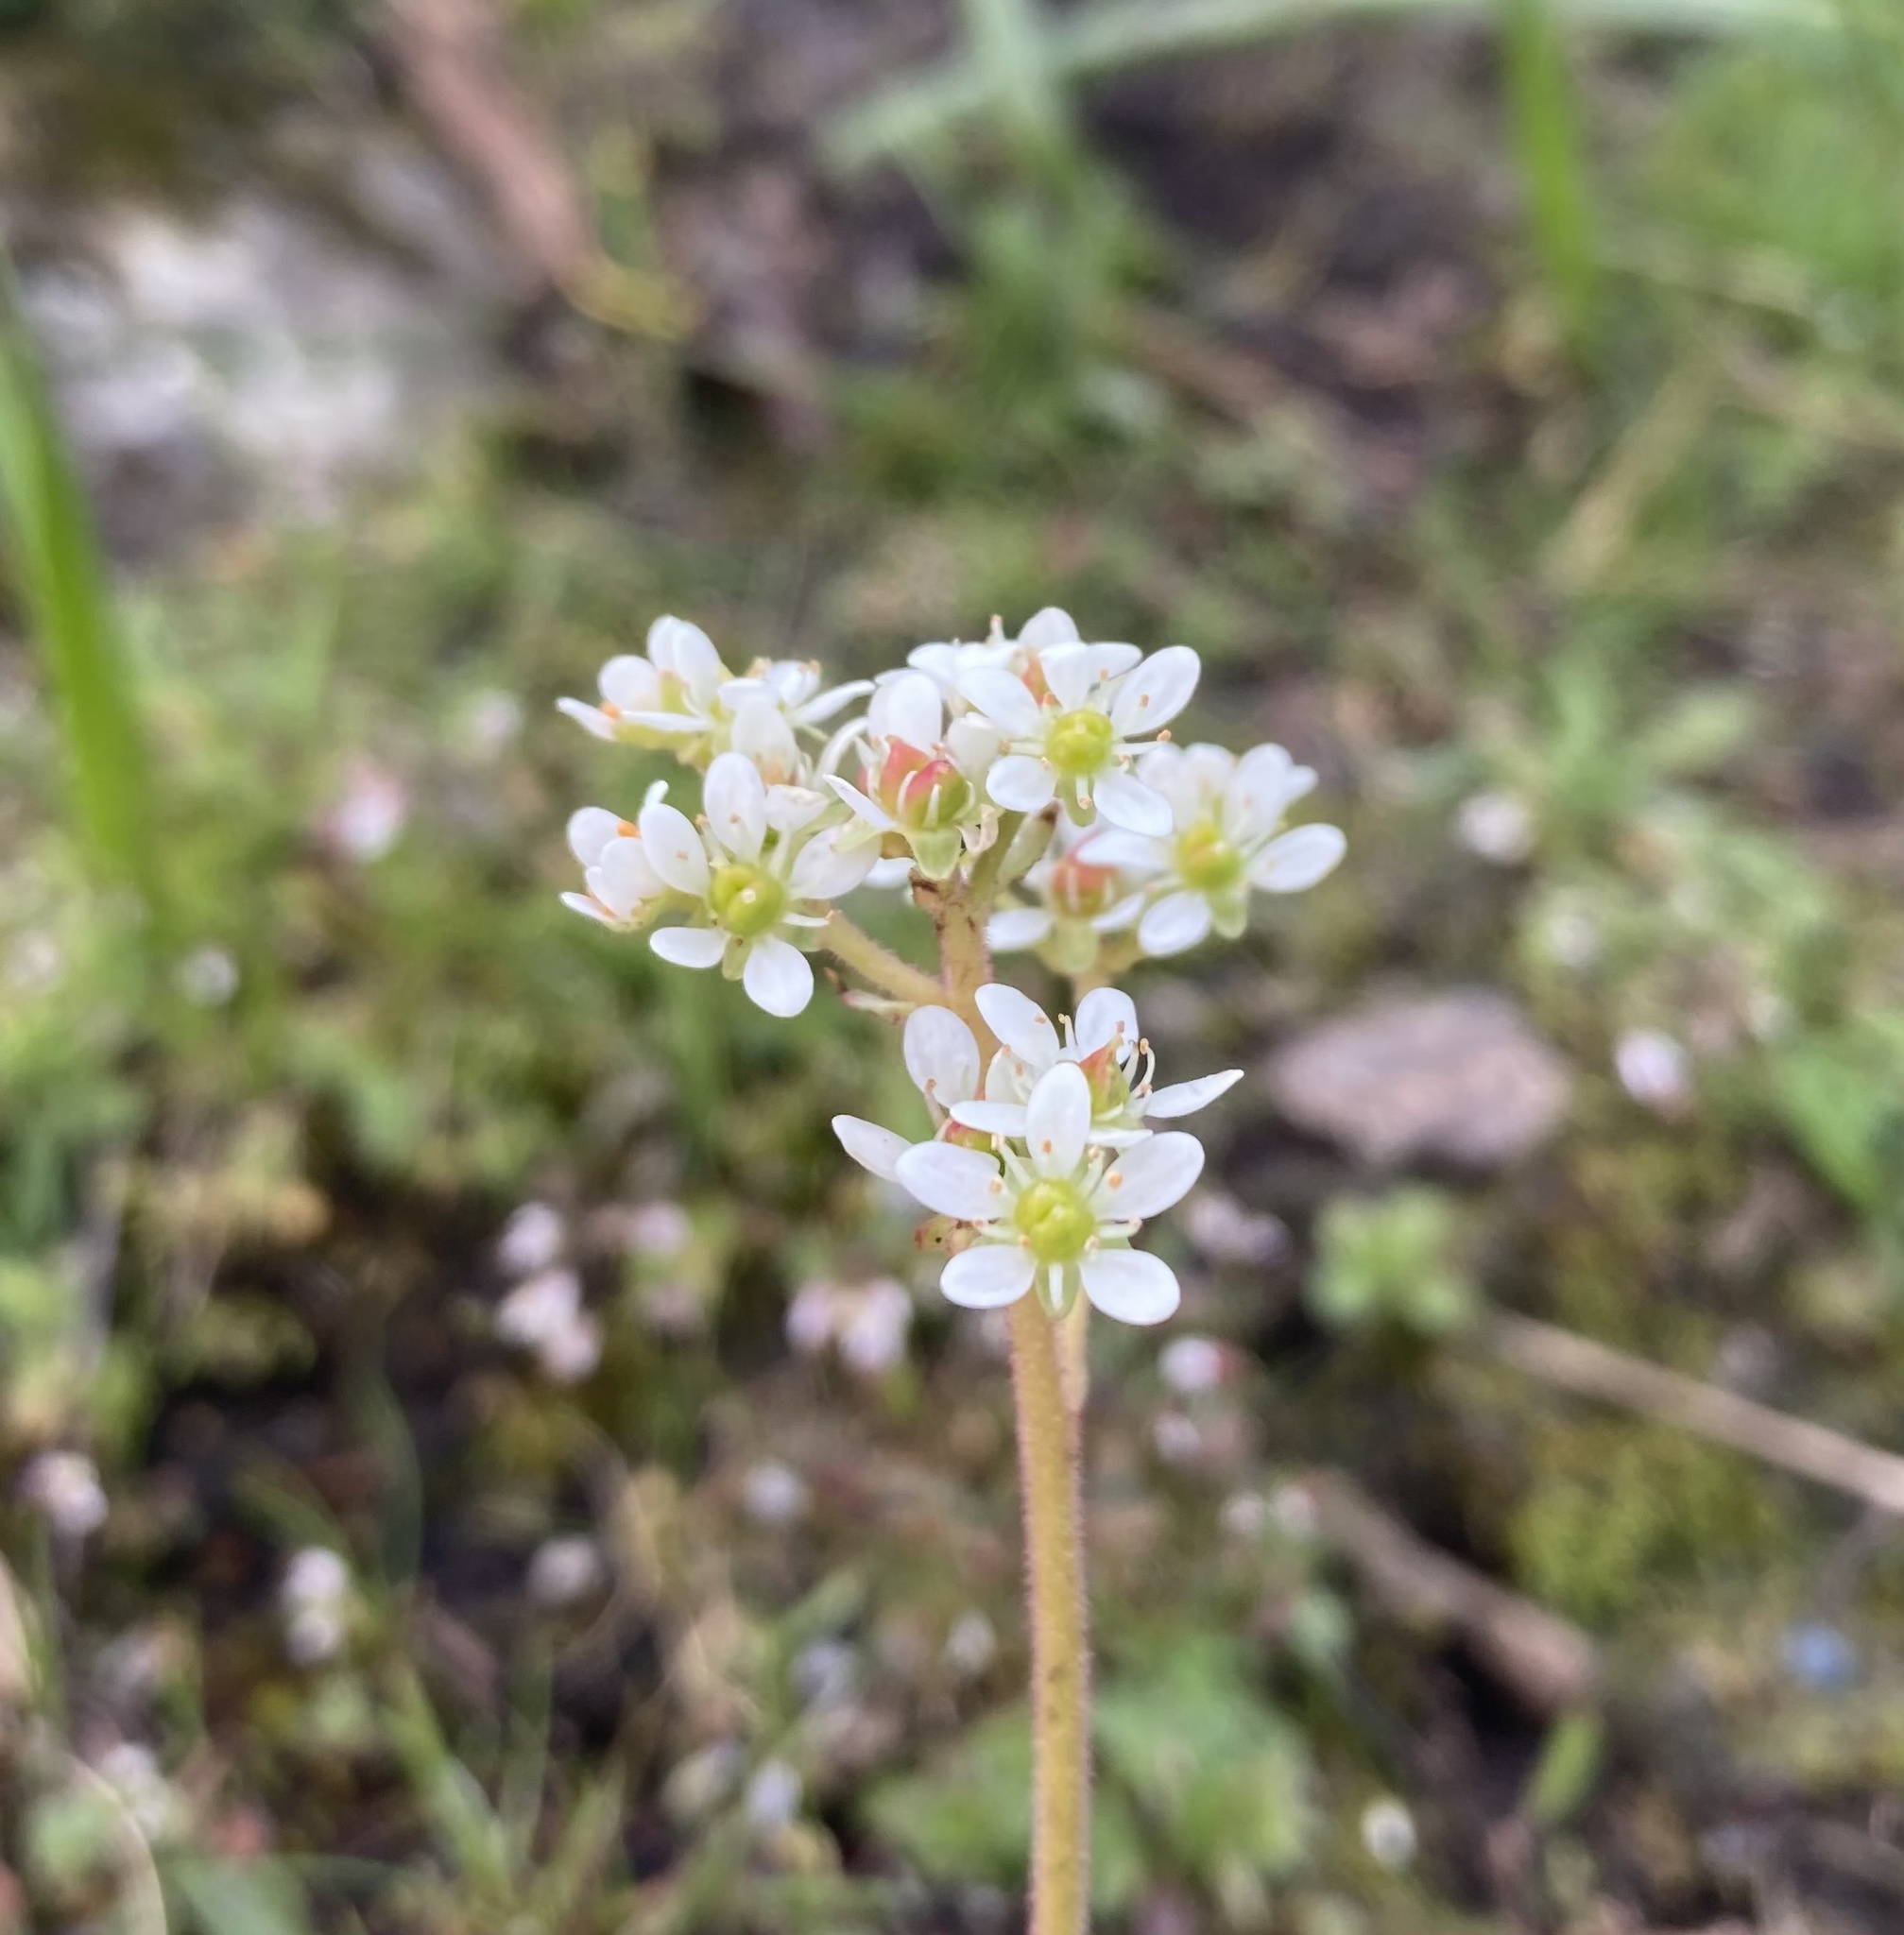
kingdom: Plantae
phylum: Tracheophyta
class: Magnoliopsida
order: Saxifragales
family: Saxifragaceae
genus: Micranthes
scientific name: Micranthes integrifolia
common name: Wholeleaf saxifrage
